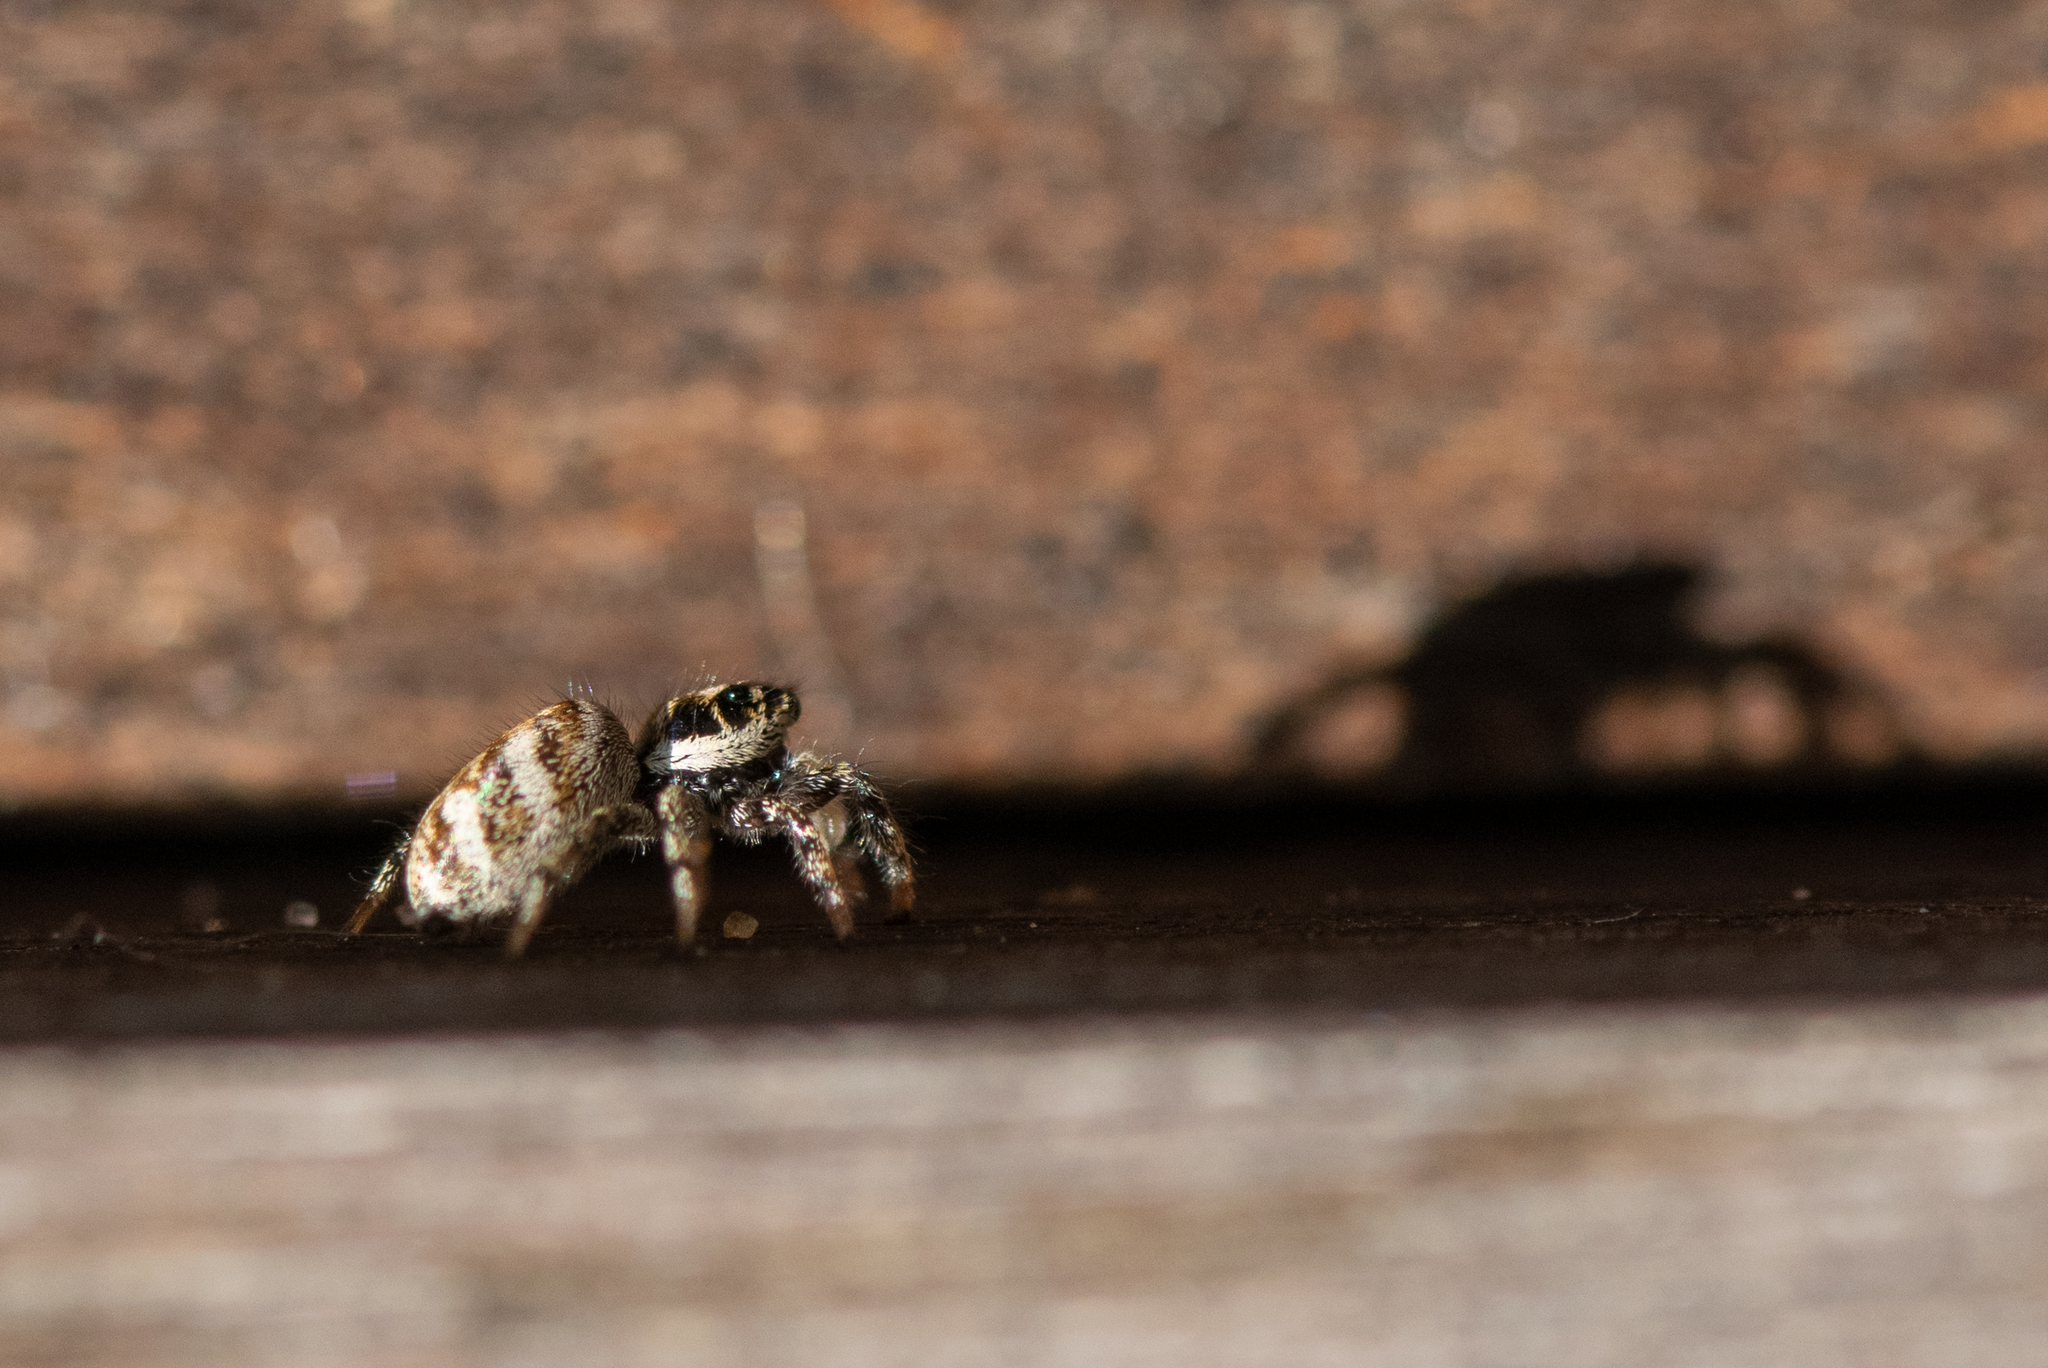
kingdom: Animalia
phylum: Arthropoda
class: Arachnida
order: Araneae
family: Salticidae
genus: Salticus
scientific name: Salticus scenicus
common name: Zebra jumper
